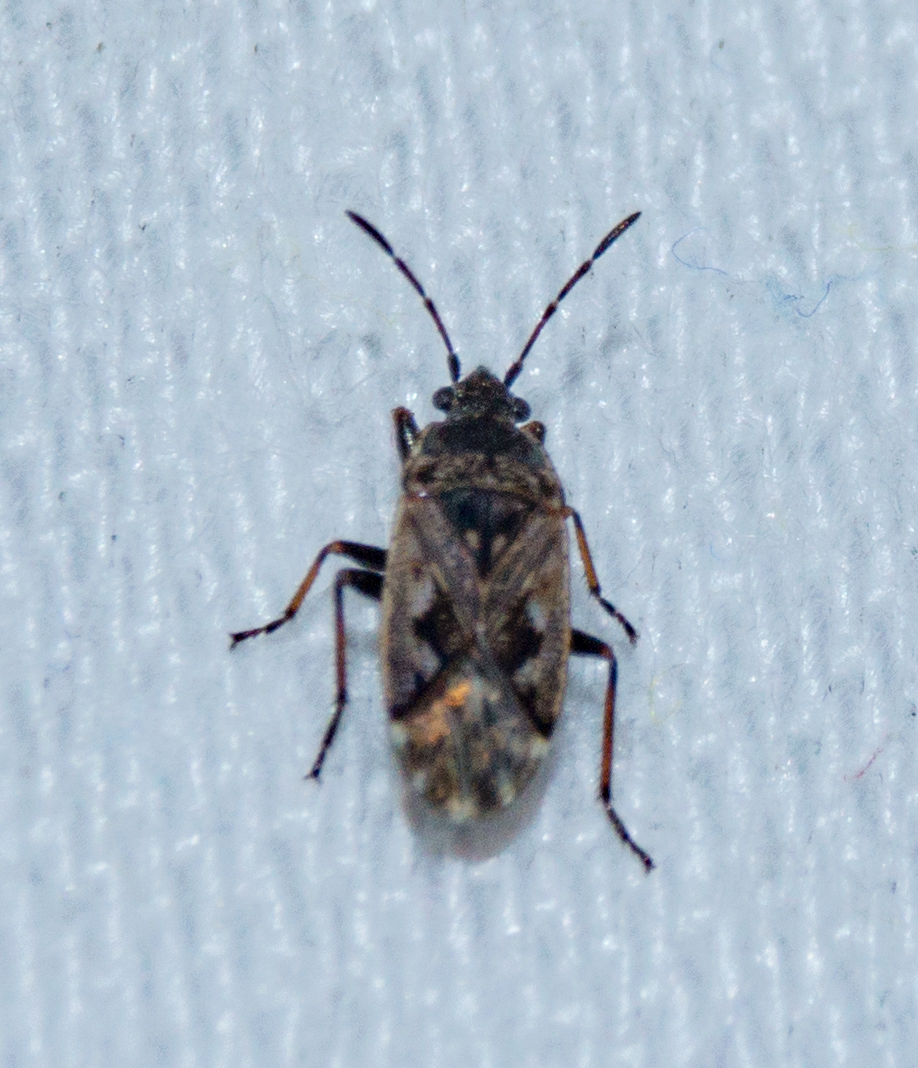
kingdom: Animalia
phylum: Arthropoda
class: Insecta
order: Hemiptera
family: Rhyparochromidae
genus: Sphragisticus
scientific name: Sphragisticus nebulosus
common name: Dirt-colored seed bug
